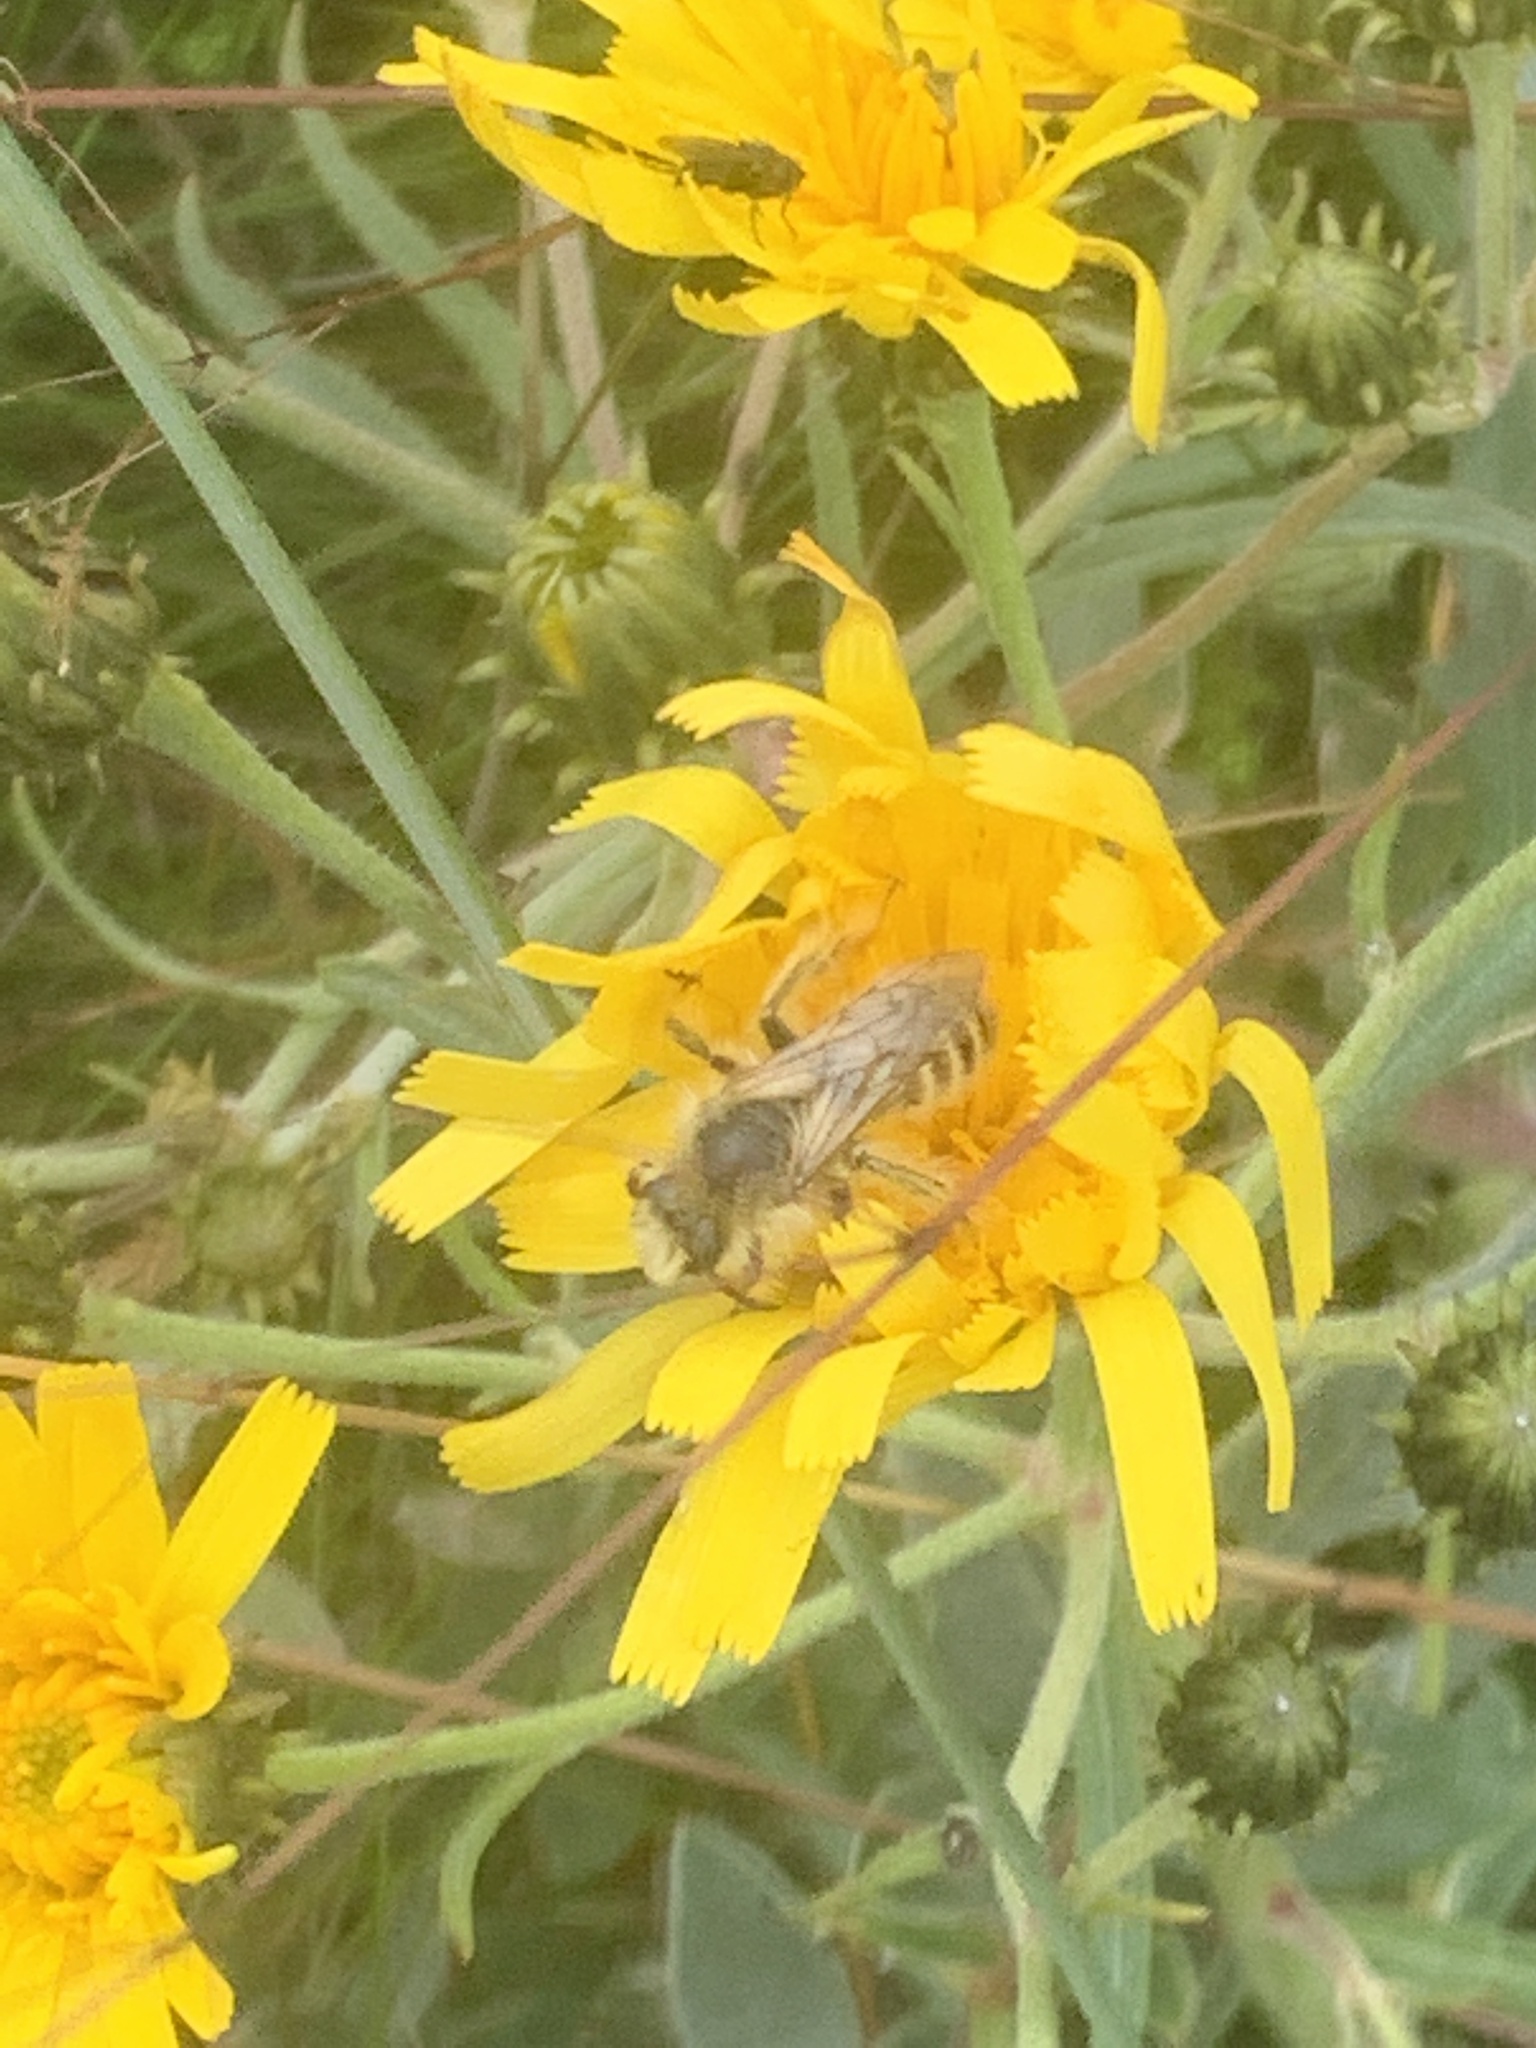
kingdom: Animalia
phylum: Arthropoda
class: Insecta
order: Hymenoptera
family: Melittidae
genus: Dasypoda
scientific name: Dasypoda hirtipes
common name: Pantaloon bee
